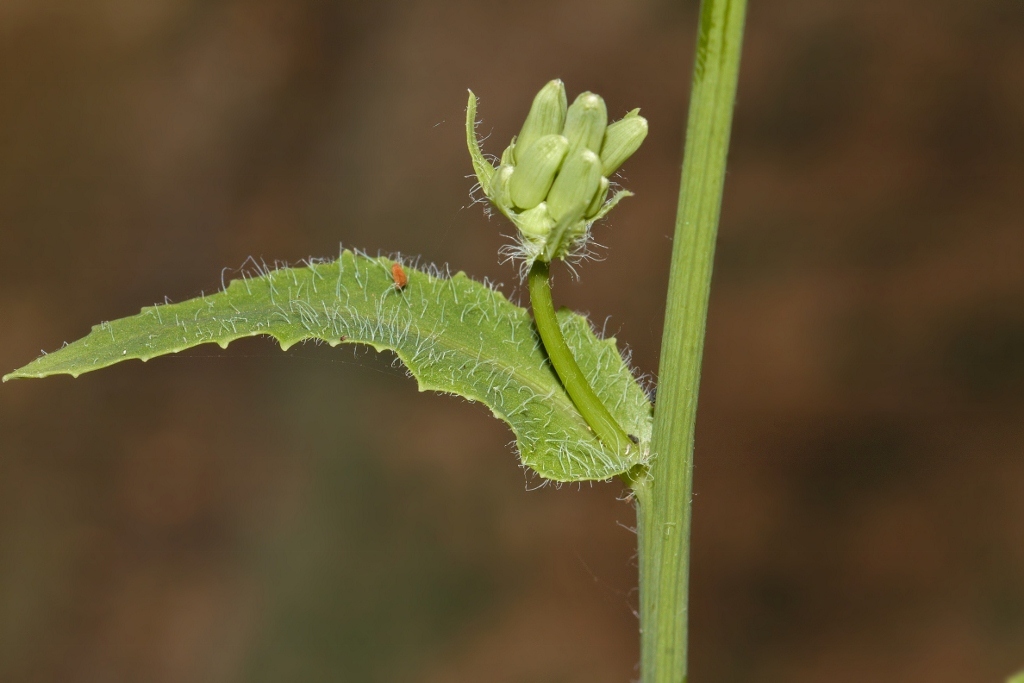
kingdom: Plantae
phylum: Tracheophyta
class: Magnoliopsida
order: Asterales
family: Asteraceae
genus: Emilia
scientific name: Emilia abyssinica
